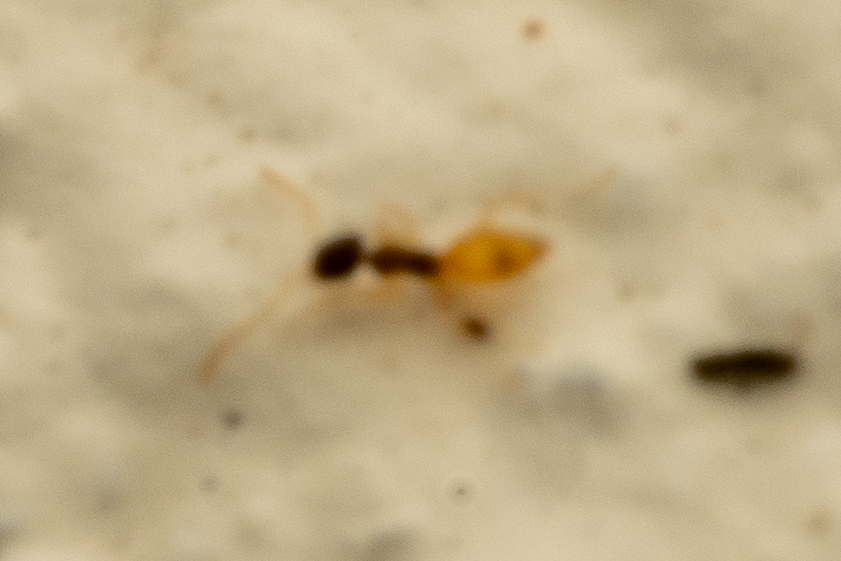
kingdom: Animalia
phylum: Arthropoda
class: Insecta
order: Hymenoptera
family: Formicidae
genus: Tapinoma
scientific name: Tapinoma melanocephalum
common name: Ghost ant
